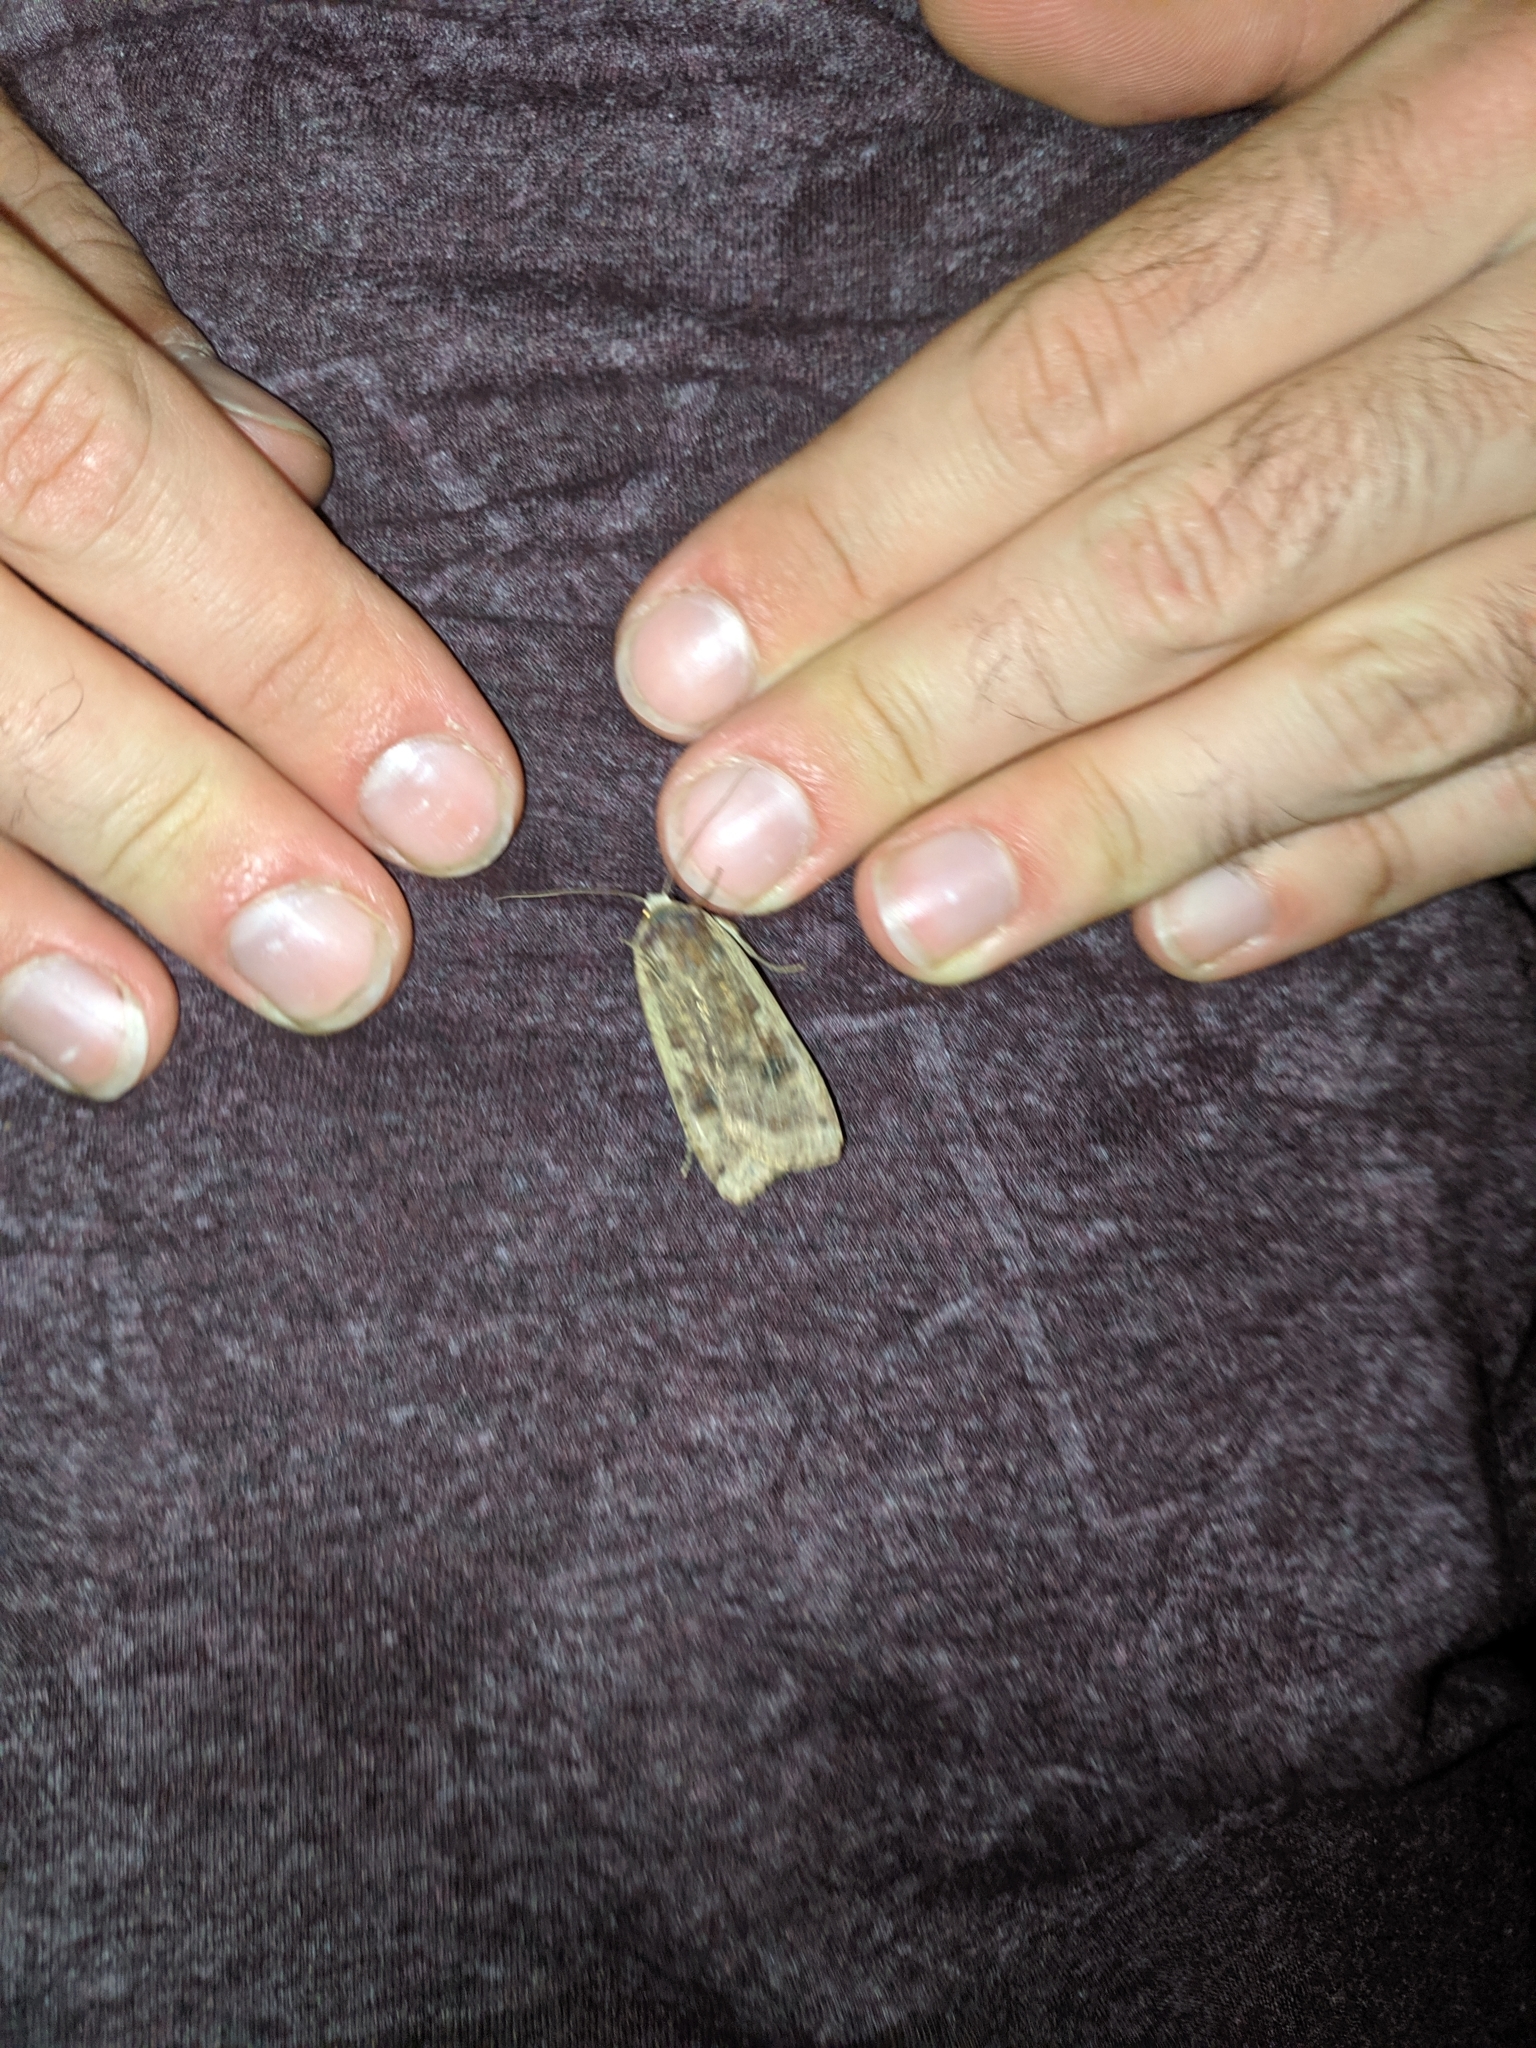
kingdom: Animalia
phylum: Arthropoda
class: Insecta
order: Lepidoptera
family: Noctuidae
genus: Noctua
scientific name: Noctua pronuba
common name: Large yellow underwing
